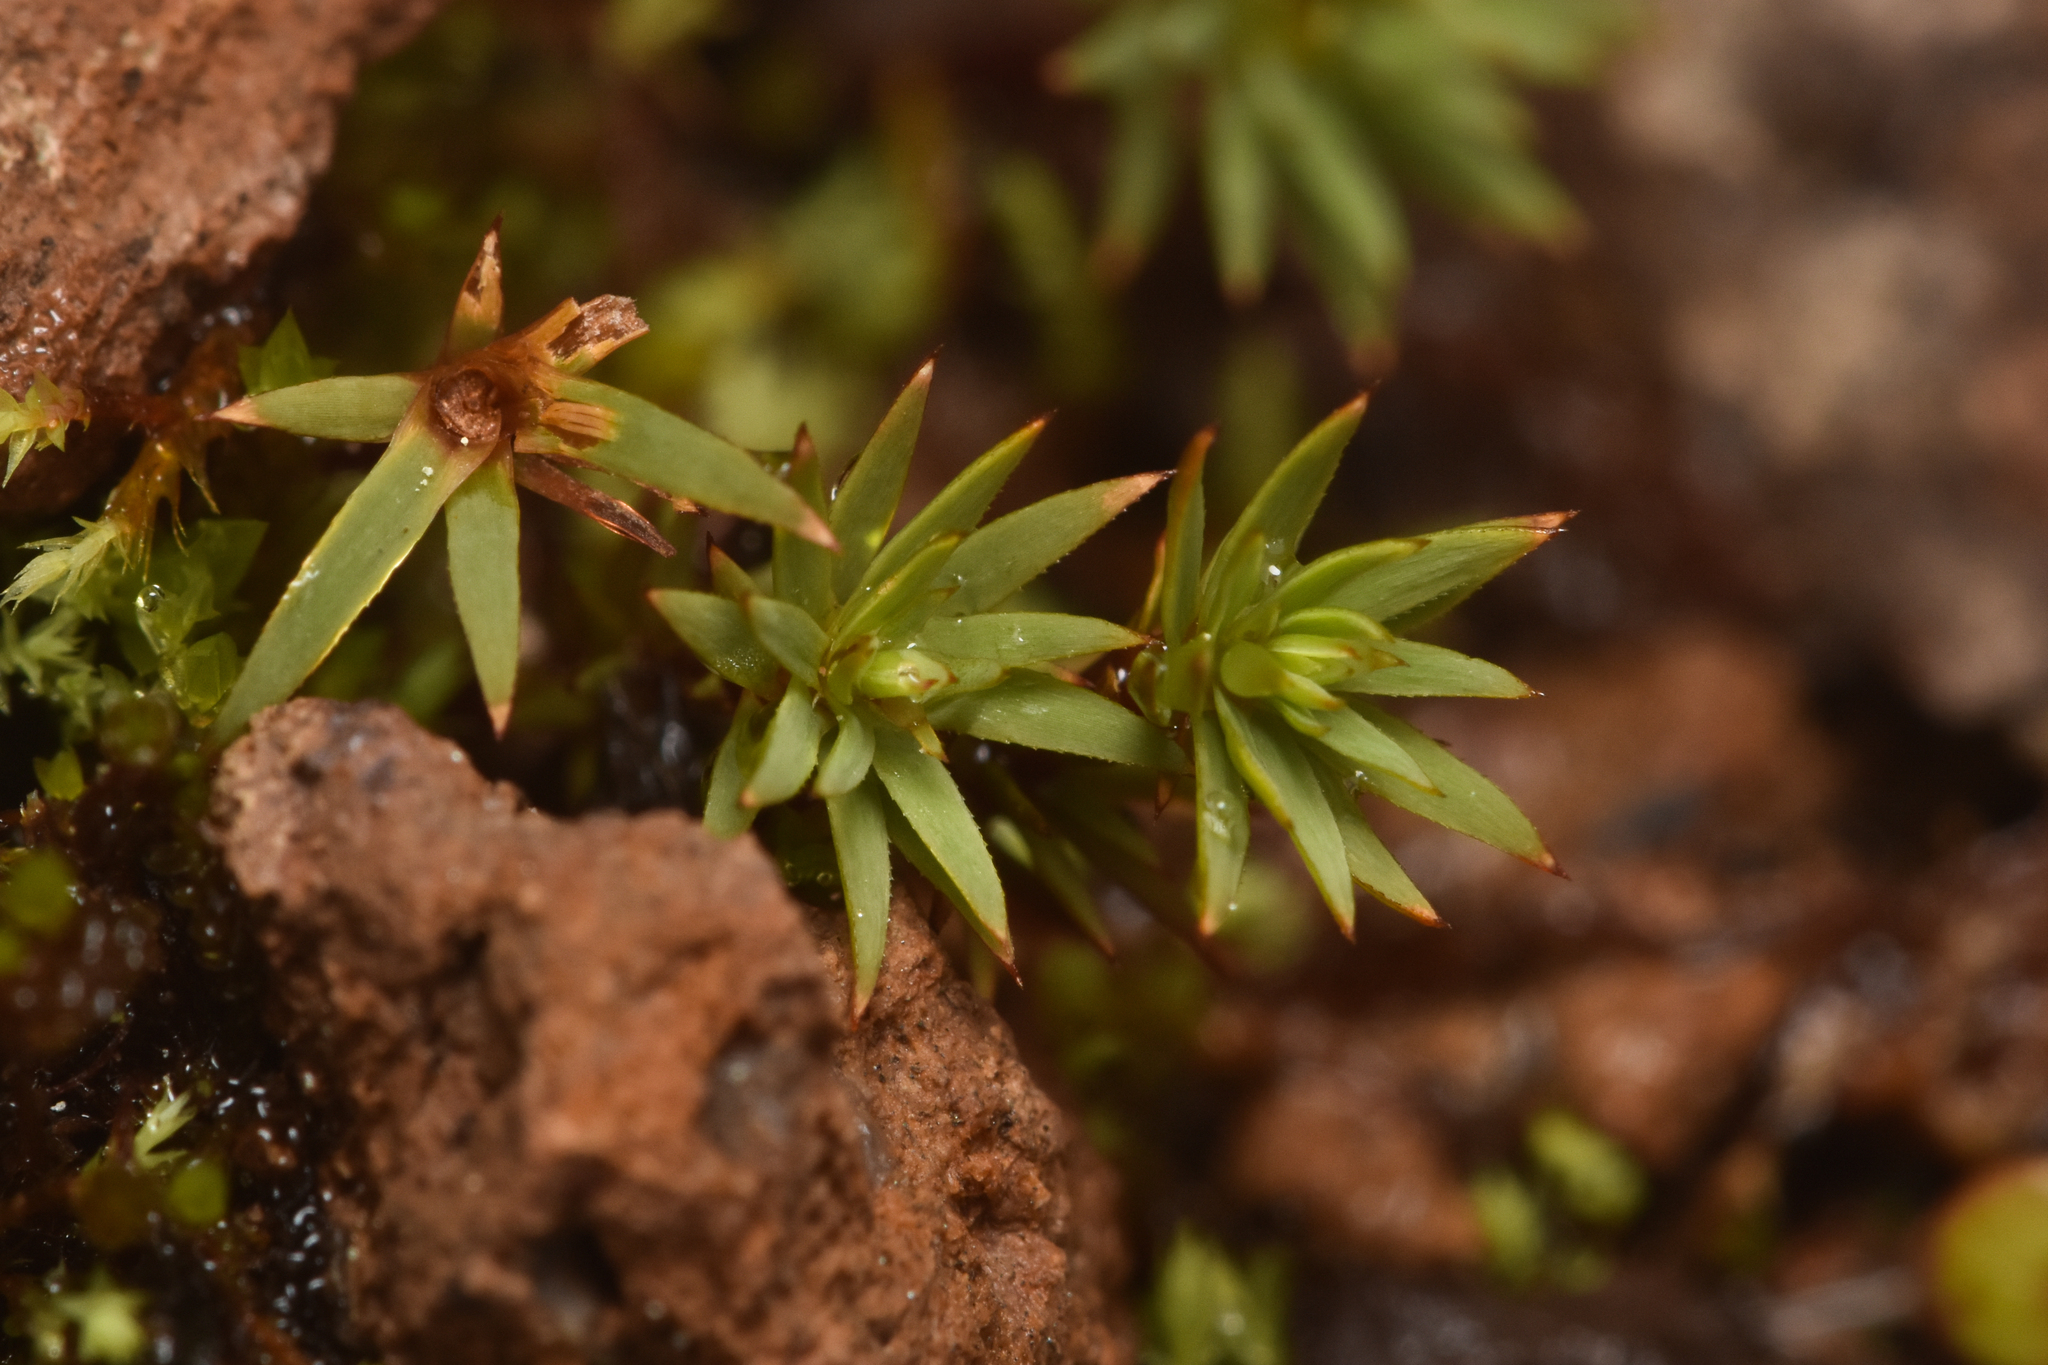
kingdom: Plantae
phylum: Bryophyta
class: Polytrichopsida
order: Polytrichales
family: Polytrichaceae
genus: Pogonatum
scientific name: Pogonatum urnigerum
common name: Urn hair moss
